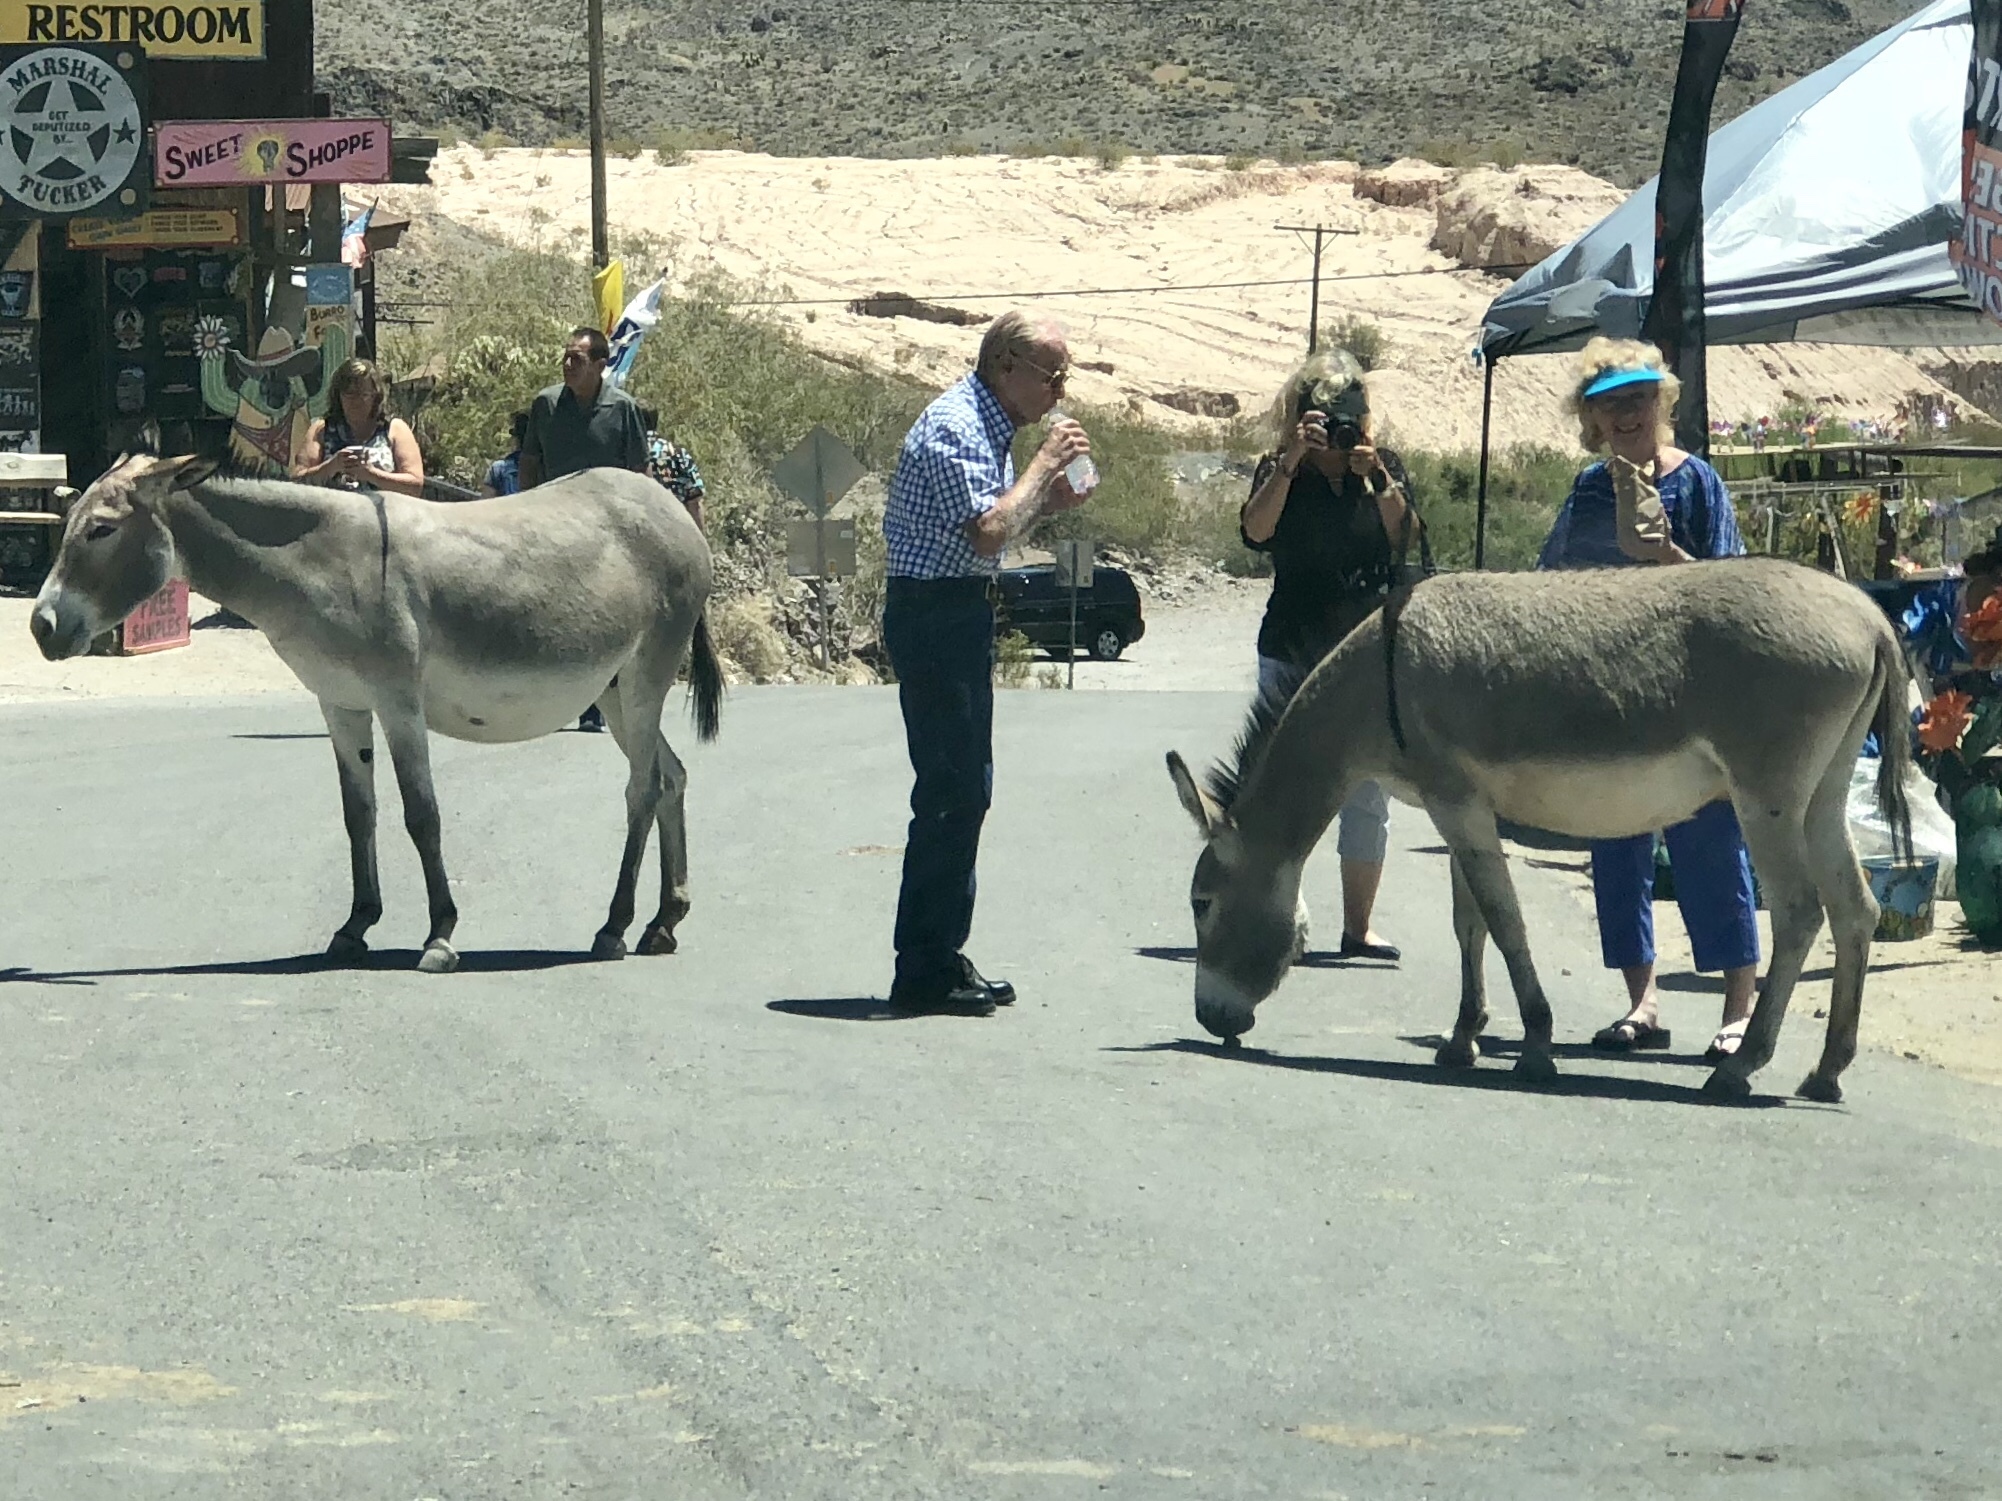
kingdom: Animalia
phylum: Chordata
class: Mammalia
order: Perissodactyla
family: Equidae
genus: Equus
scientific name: Equus asinus
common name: Ass
